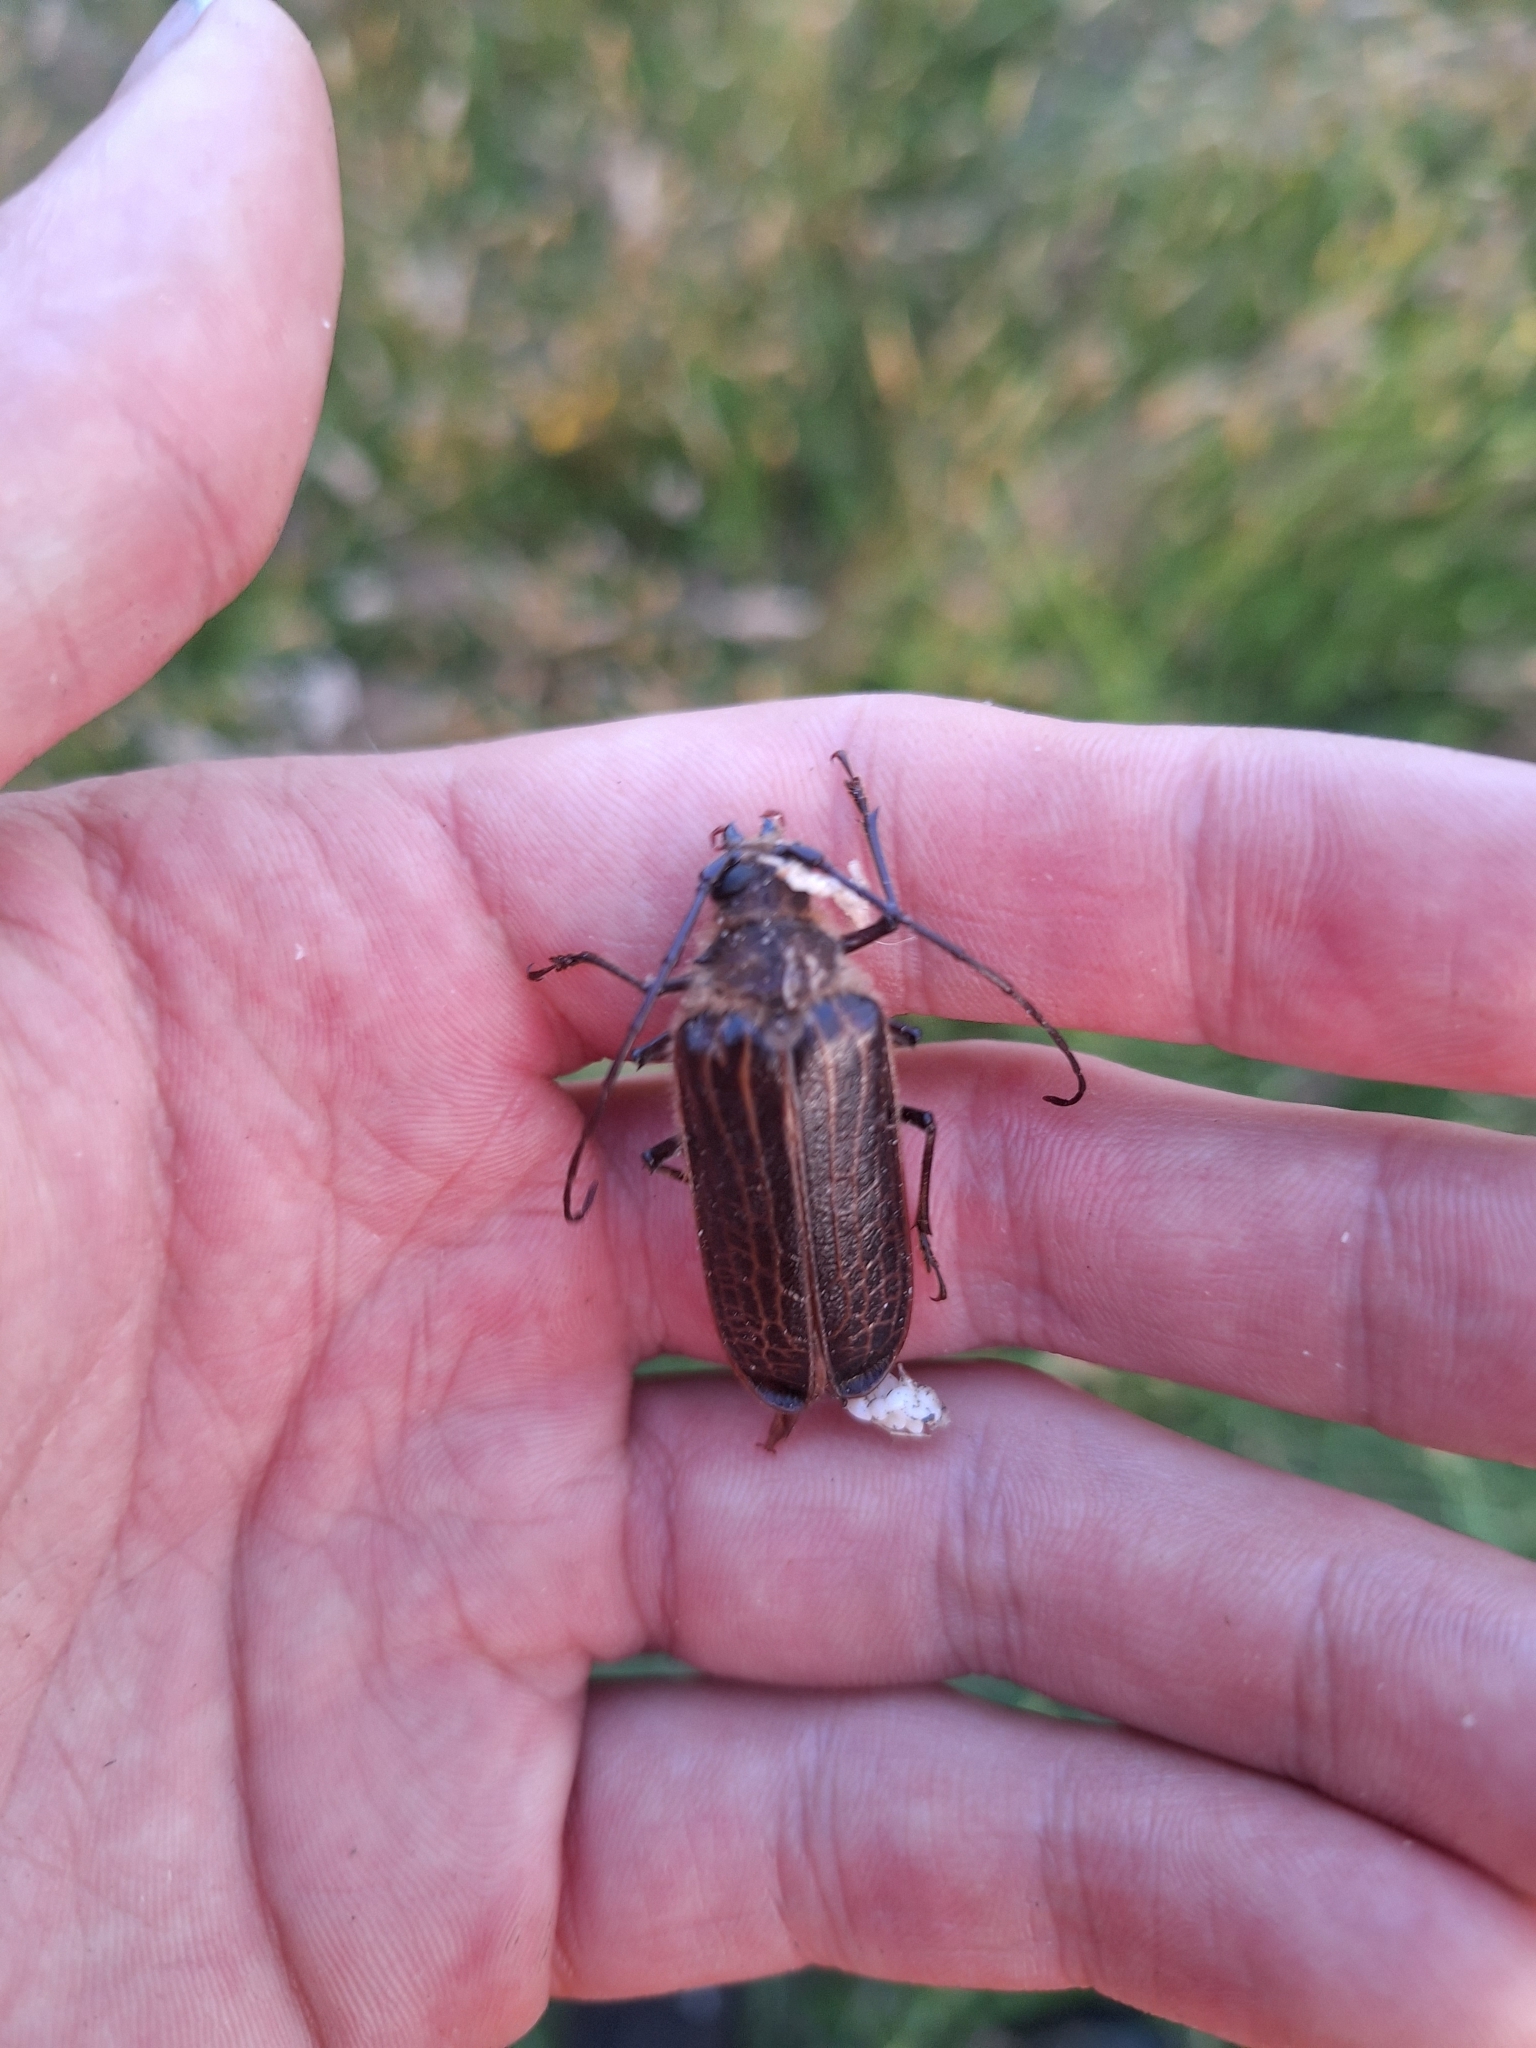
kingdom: Animalia
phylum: Arthropoda
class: Insecta
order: Coleoptera
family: Cerambycidae
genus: Prionoplus
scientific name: Prionoplus reticularis
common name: Huhu beetle
